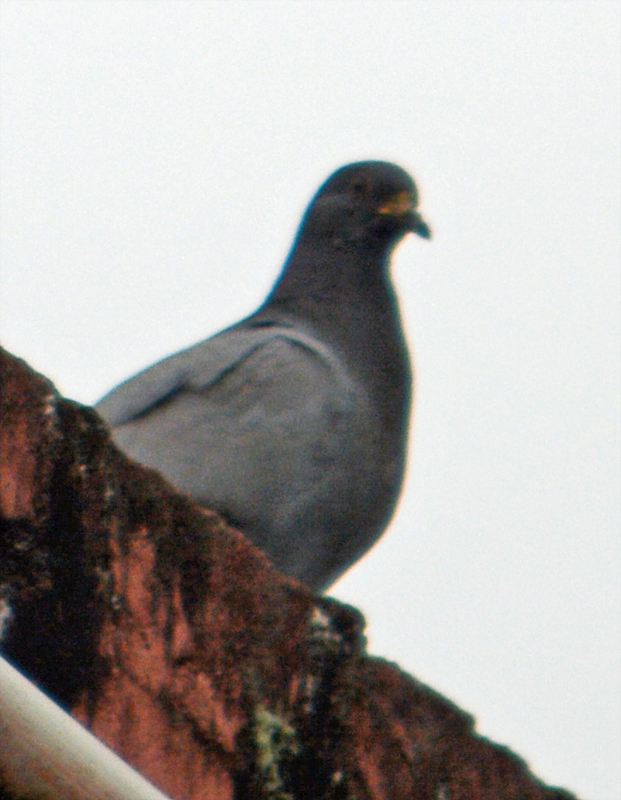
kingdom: Animalia
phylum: Chordata
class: Aves
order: Columbiformes
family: Columbidae
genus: Columba
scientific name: Columba livia
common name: Rock pigeon
